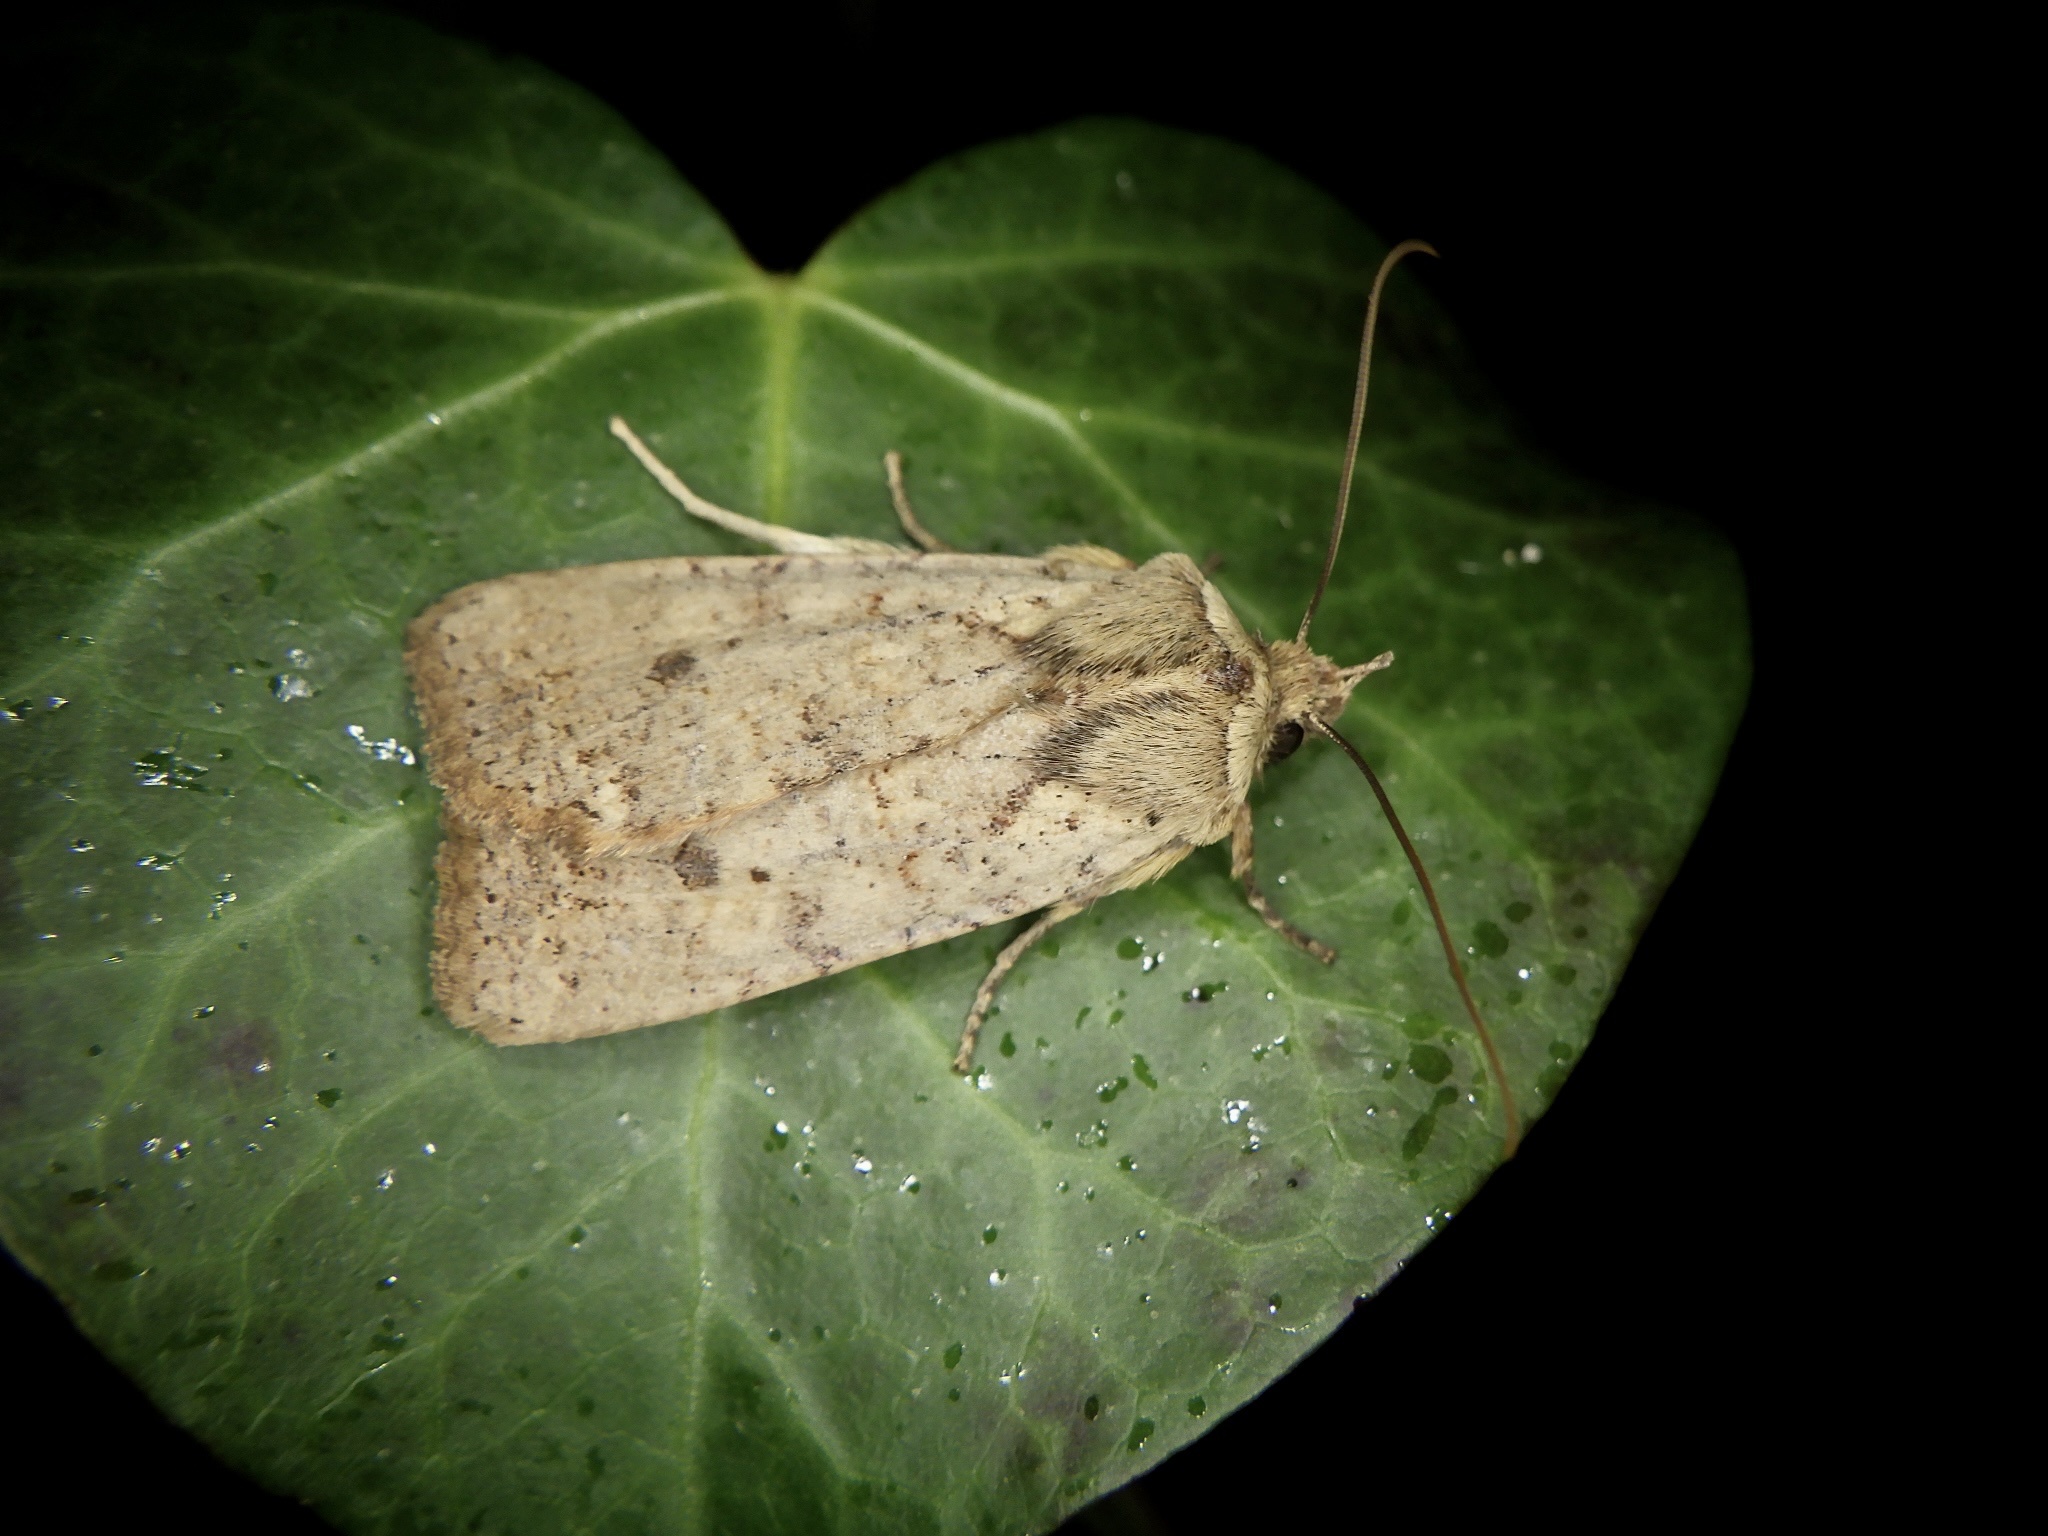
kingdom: Animalia
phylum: Arthropoda
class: Insecta
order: Lepidoptera
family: Noctuidae
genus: Rhynchaglaea
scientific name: Rhynchaglaea fuscipennis
